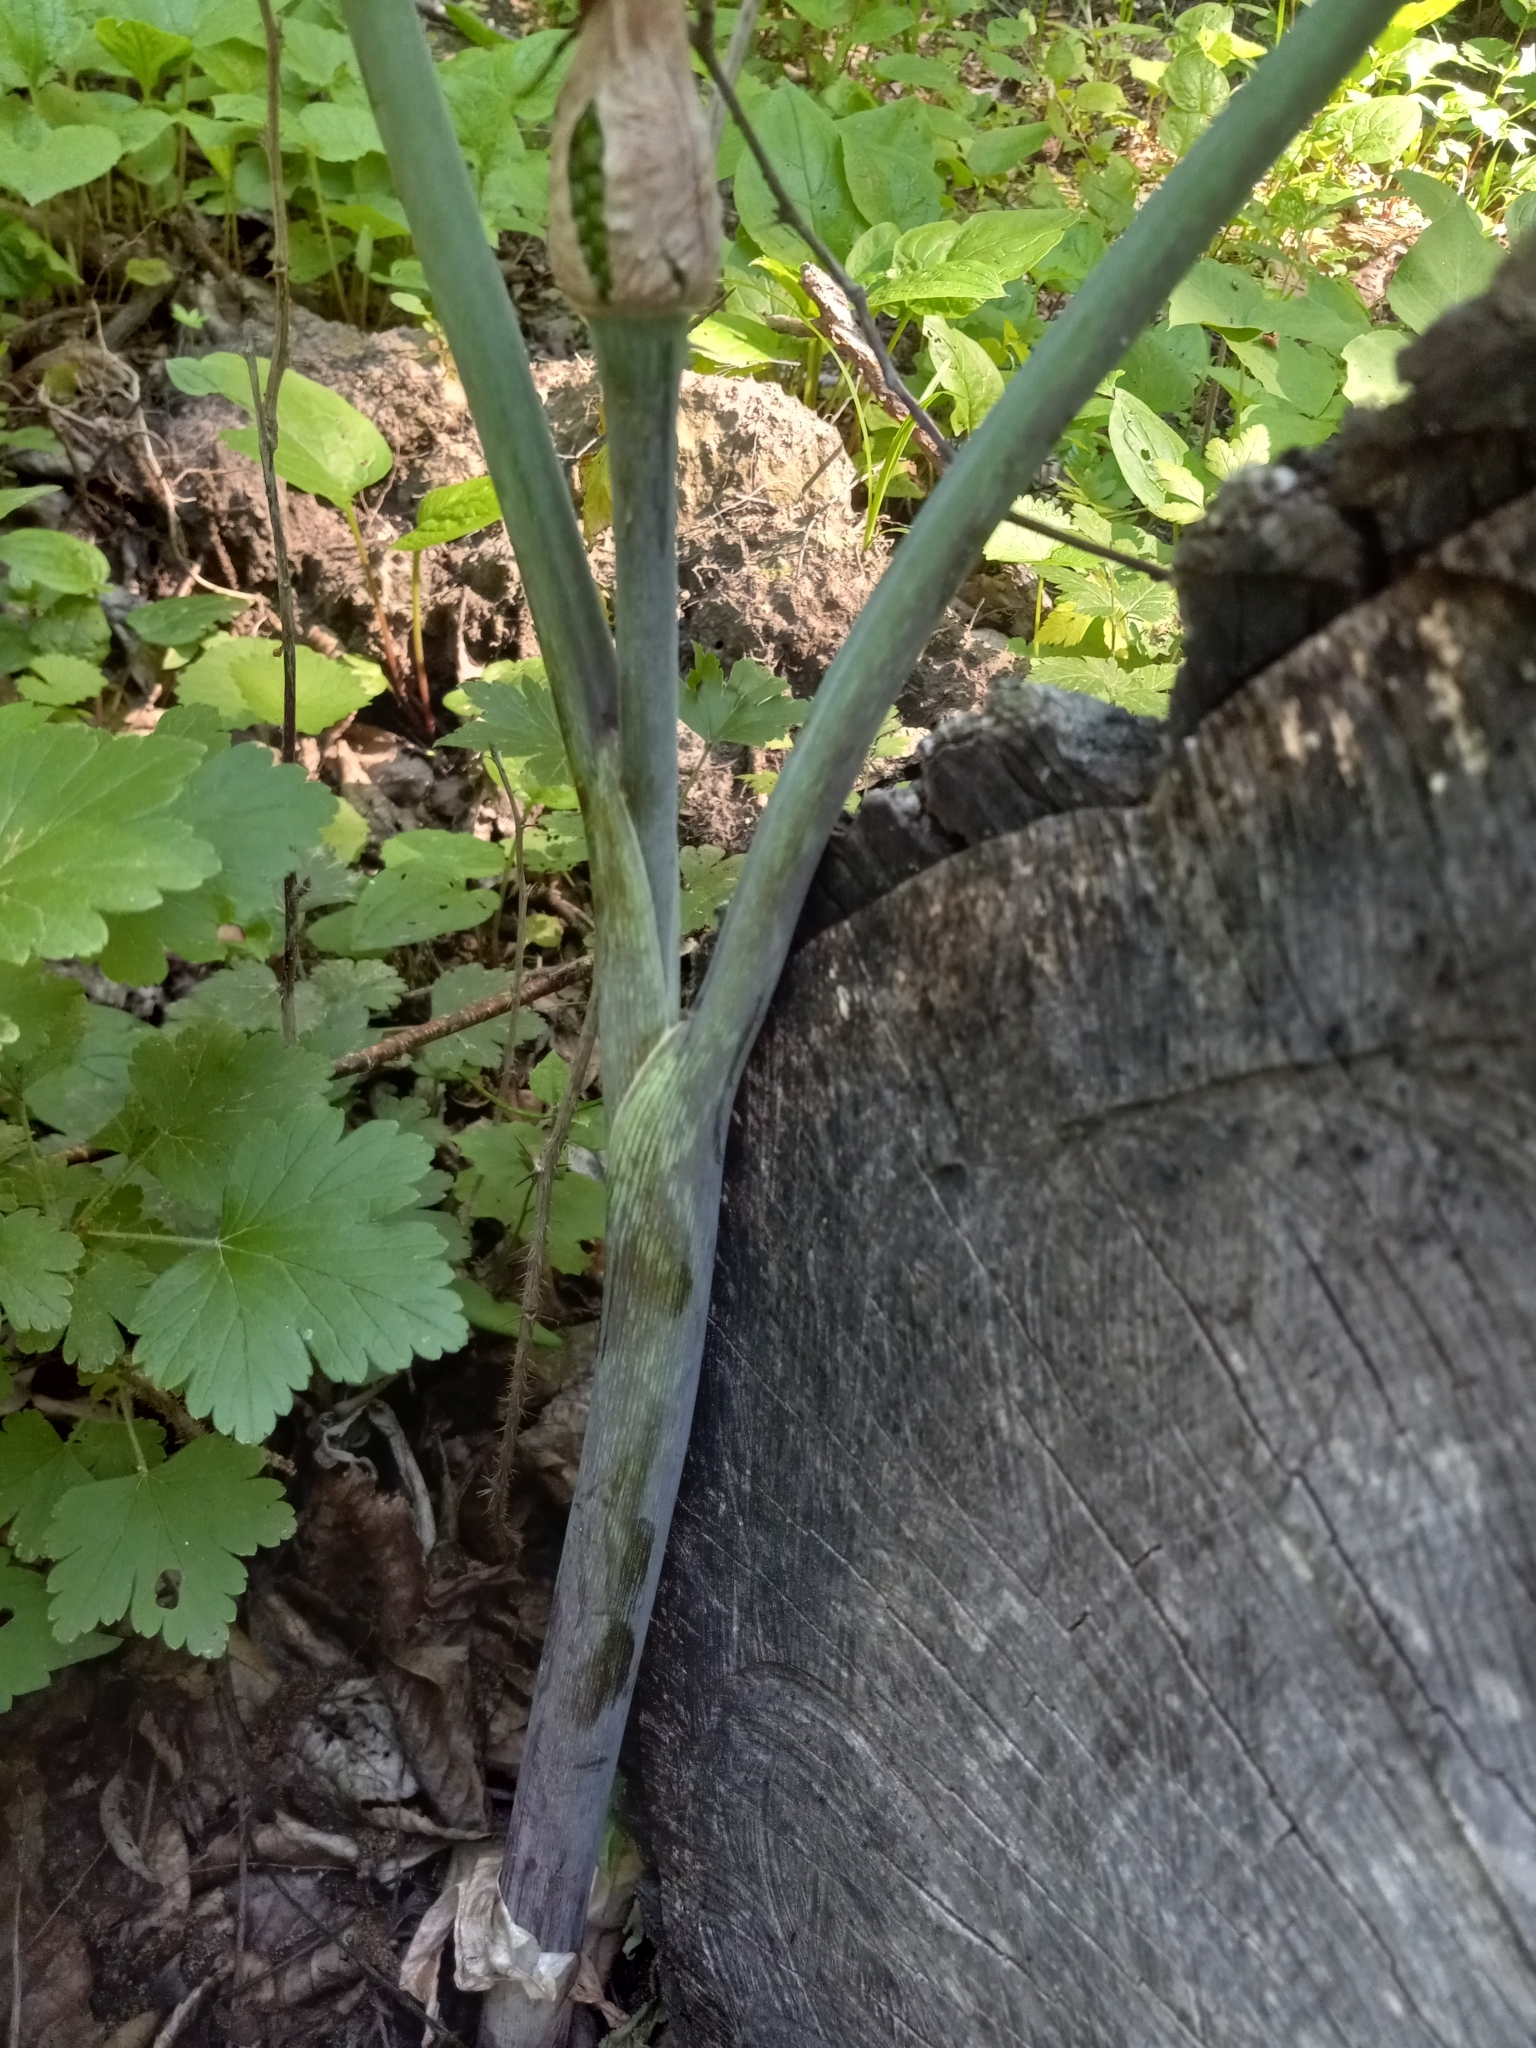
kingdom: Plantae
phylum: Tracheophyta
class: Liliopsida
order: Alismatales
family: Araceae
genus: Arisaema
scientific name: Arisaema triphyllum
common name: Jack-in-the-pulpit
